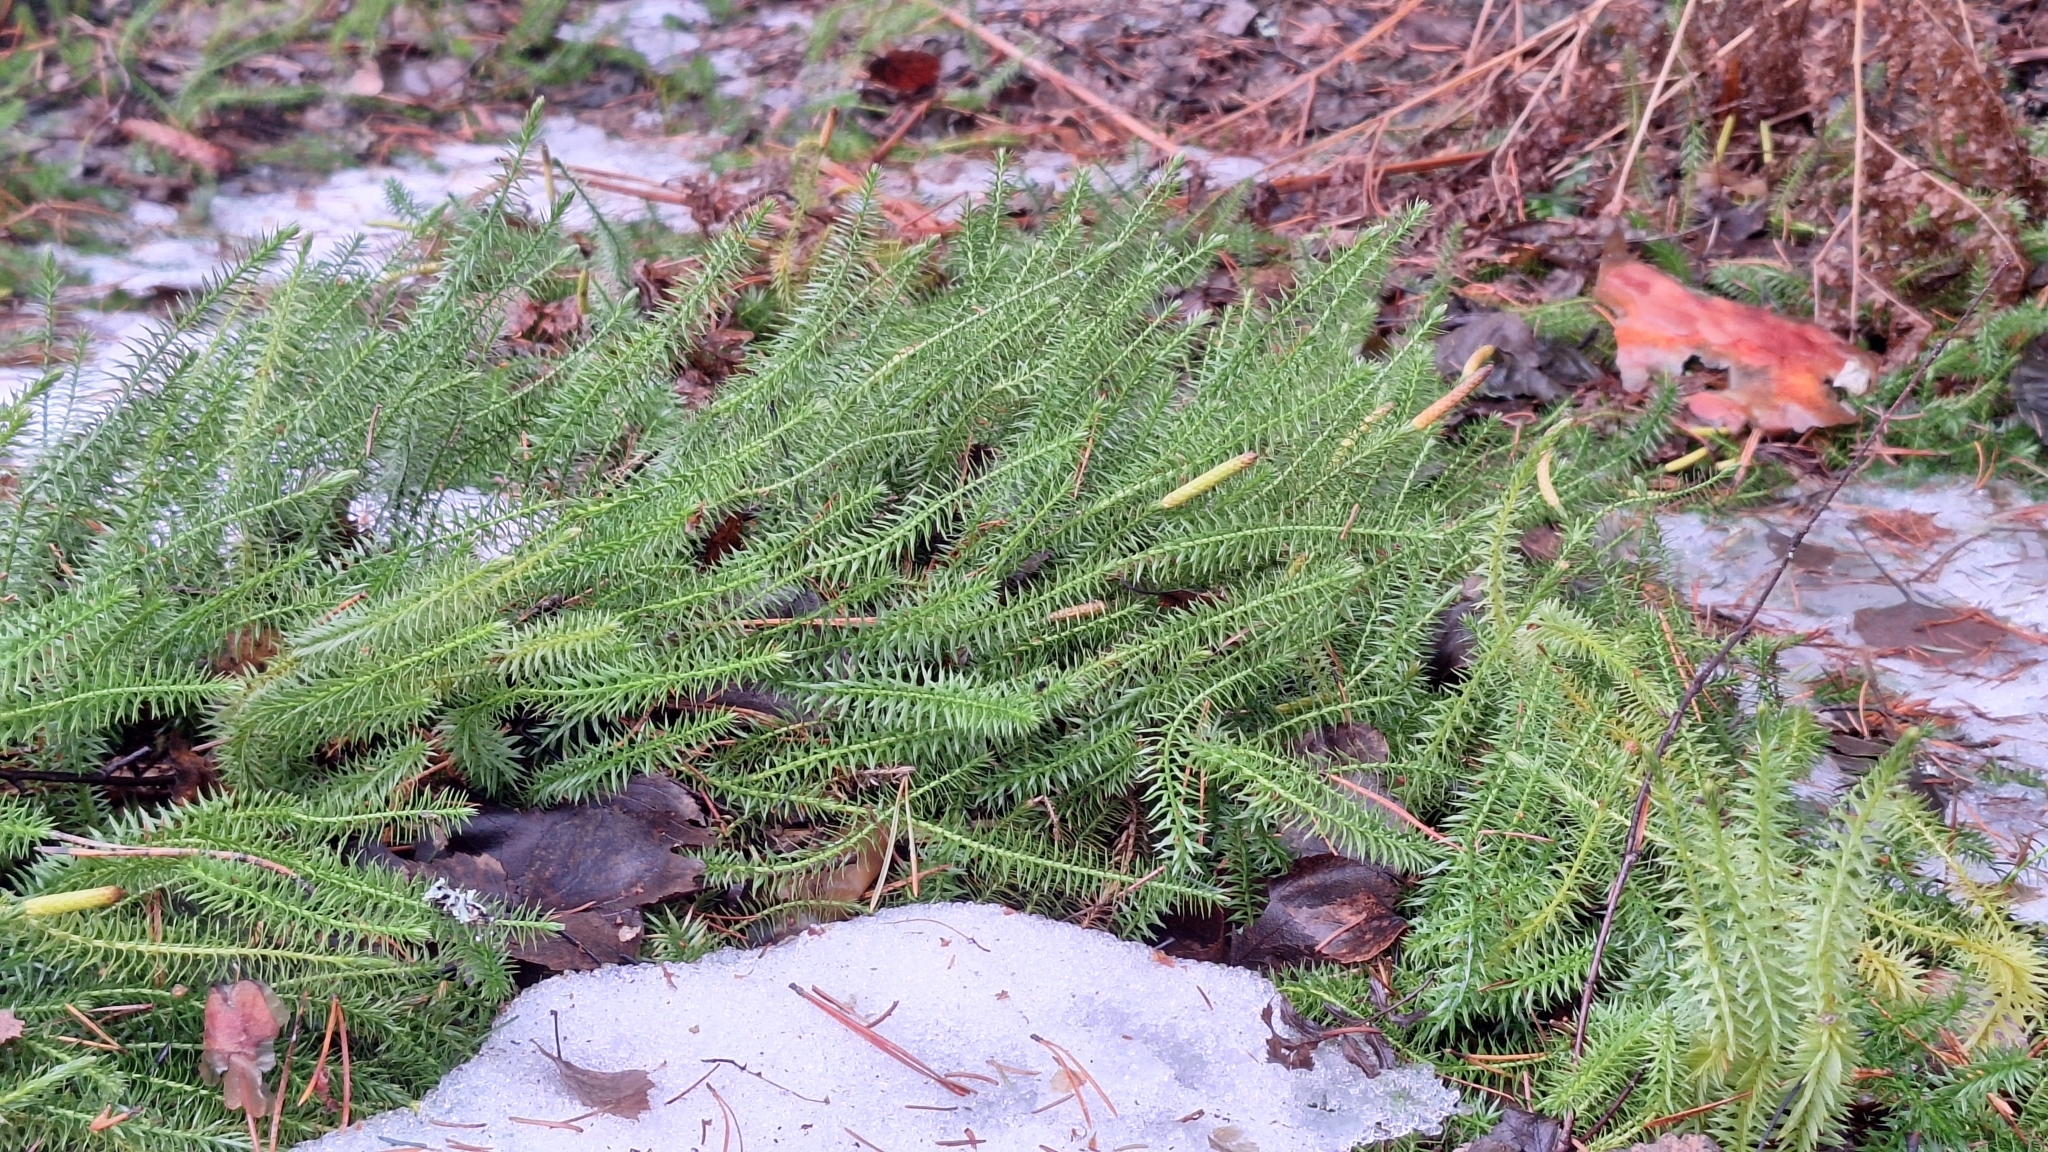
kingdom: Plantae
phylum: Tracheophyta
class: Lycopodiopsida
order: Lycopodiales
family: Lycopodiaceae
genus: Spinulum
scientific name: Spinulum annotinum
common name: Interrupted club-moss
